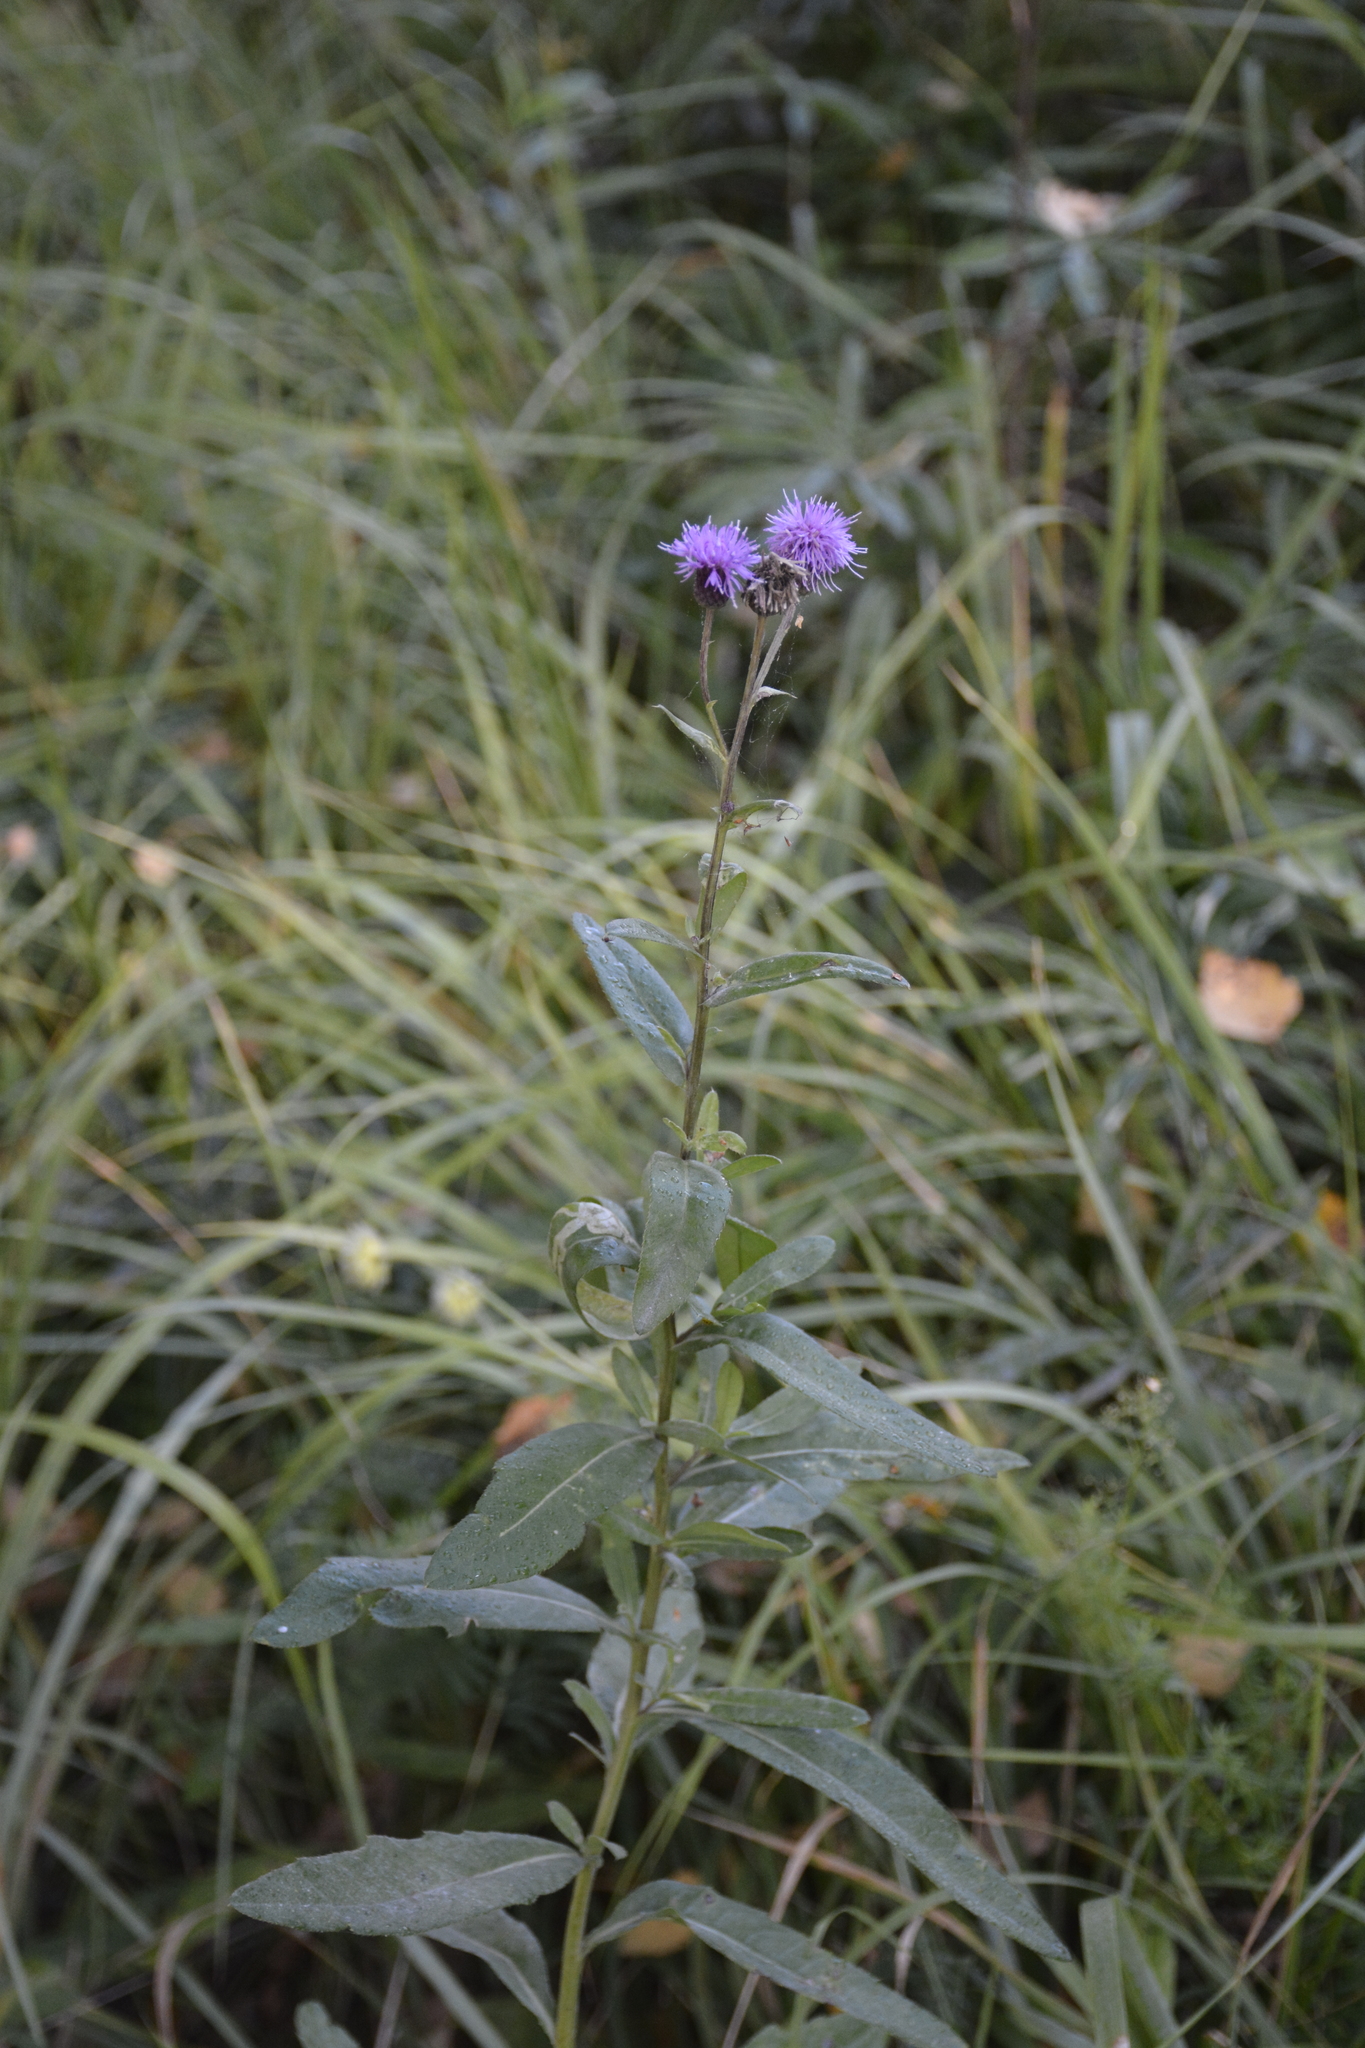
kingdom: Plantae
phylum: Tracheophyta
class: Magnoliopsida
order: Asterales
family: Asteraceae
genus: Cirsium
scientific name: Cirsium arvense
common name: Creeping thistle
